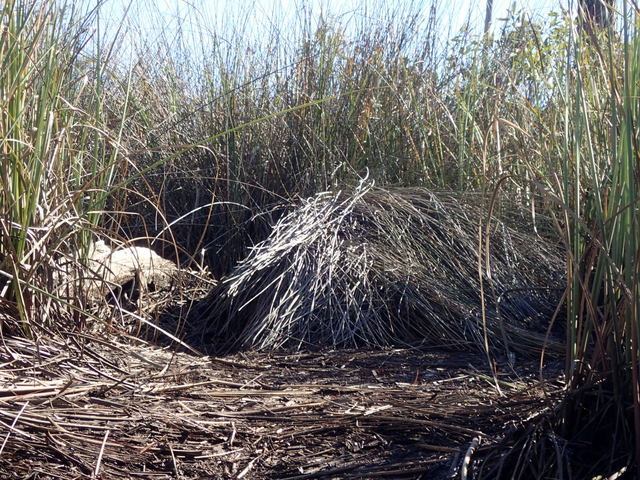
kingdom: Animalia
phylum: Chordata
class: Crocodylia
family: Alligatoridae
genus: Alligator
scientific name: Alligator mississippiensis
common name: American alligator
